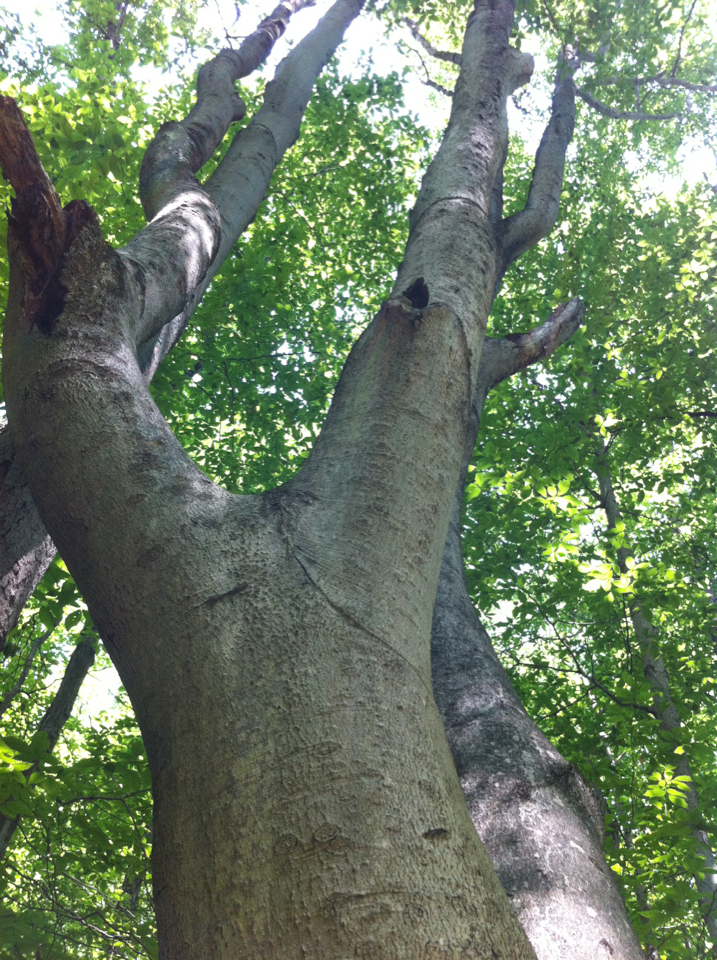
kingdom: Plantae
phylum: Tracheophyta
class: Magnoliopsida
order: Fagales
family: Fagaceae
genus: Fagus
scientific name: Fagus grandifolia
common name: American beech
